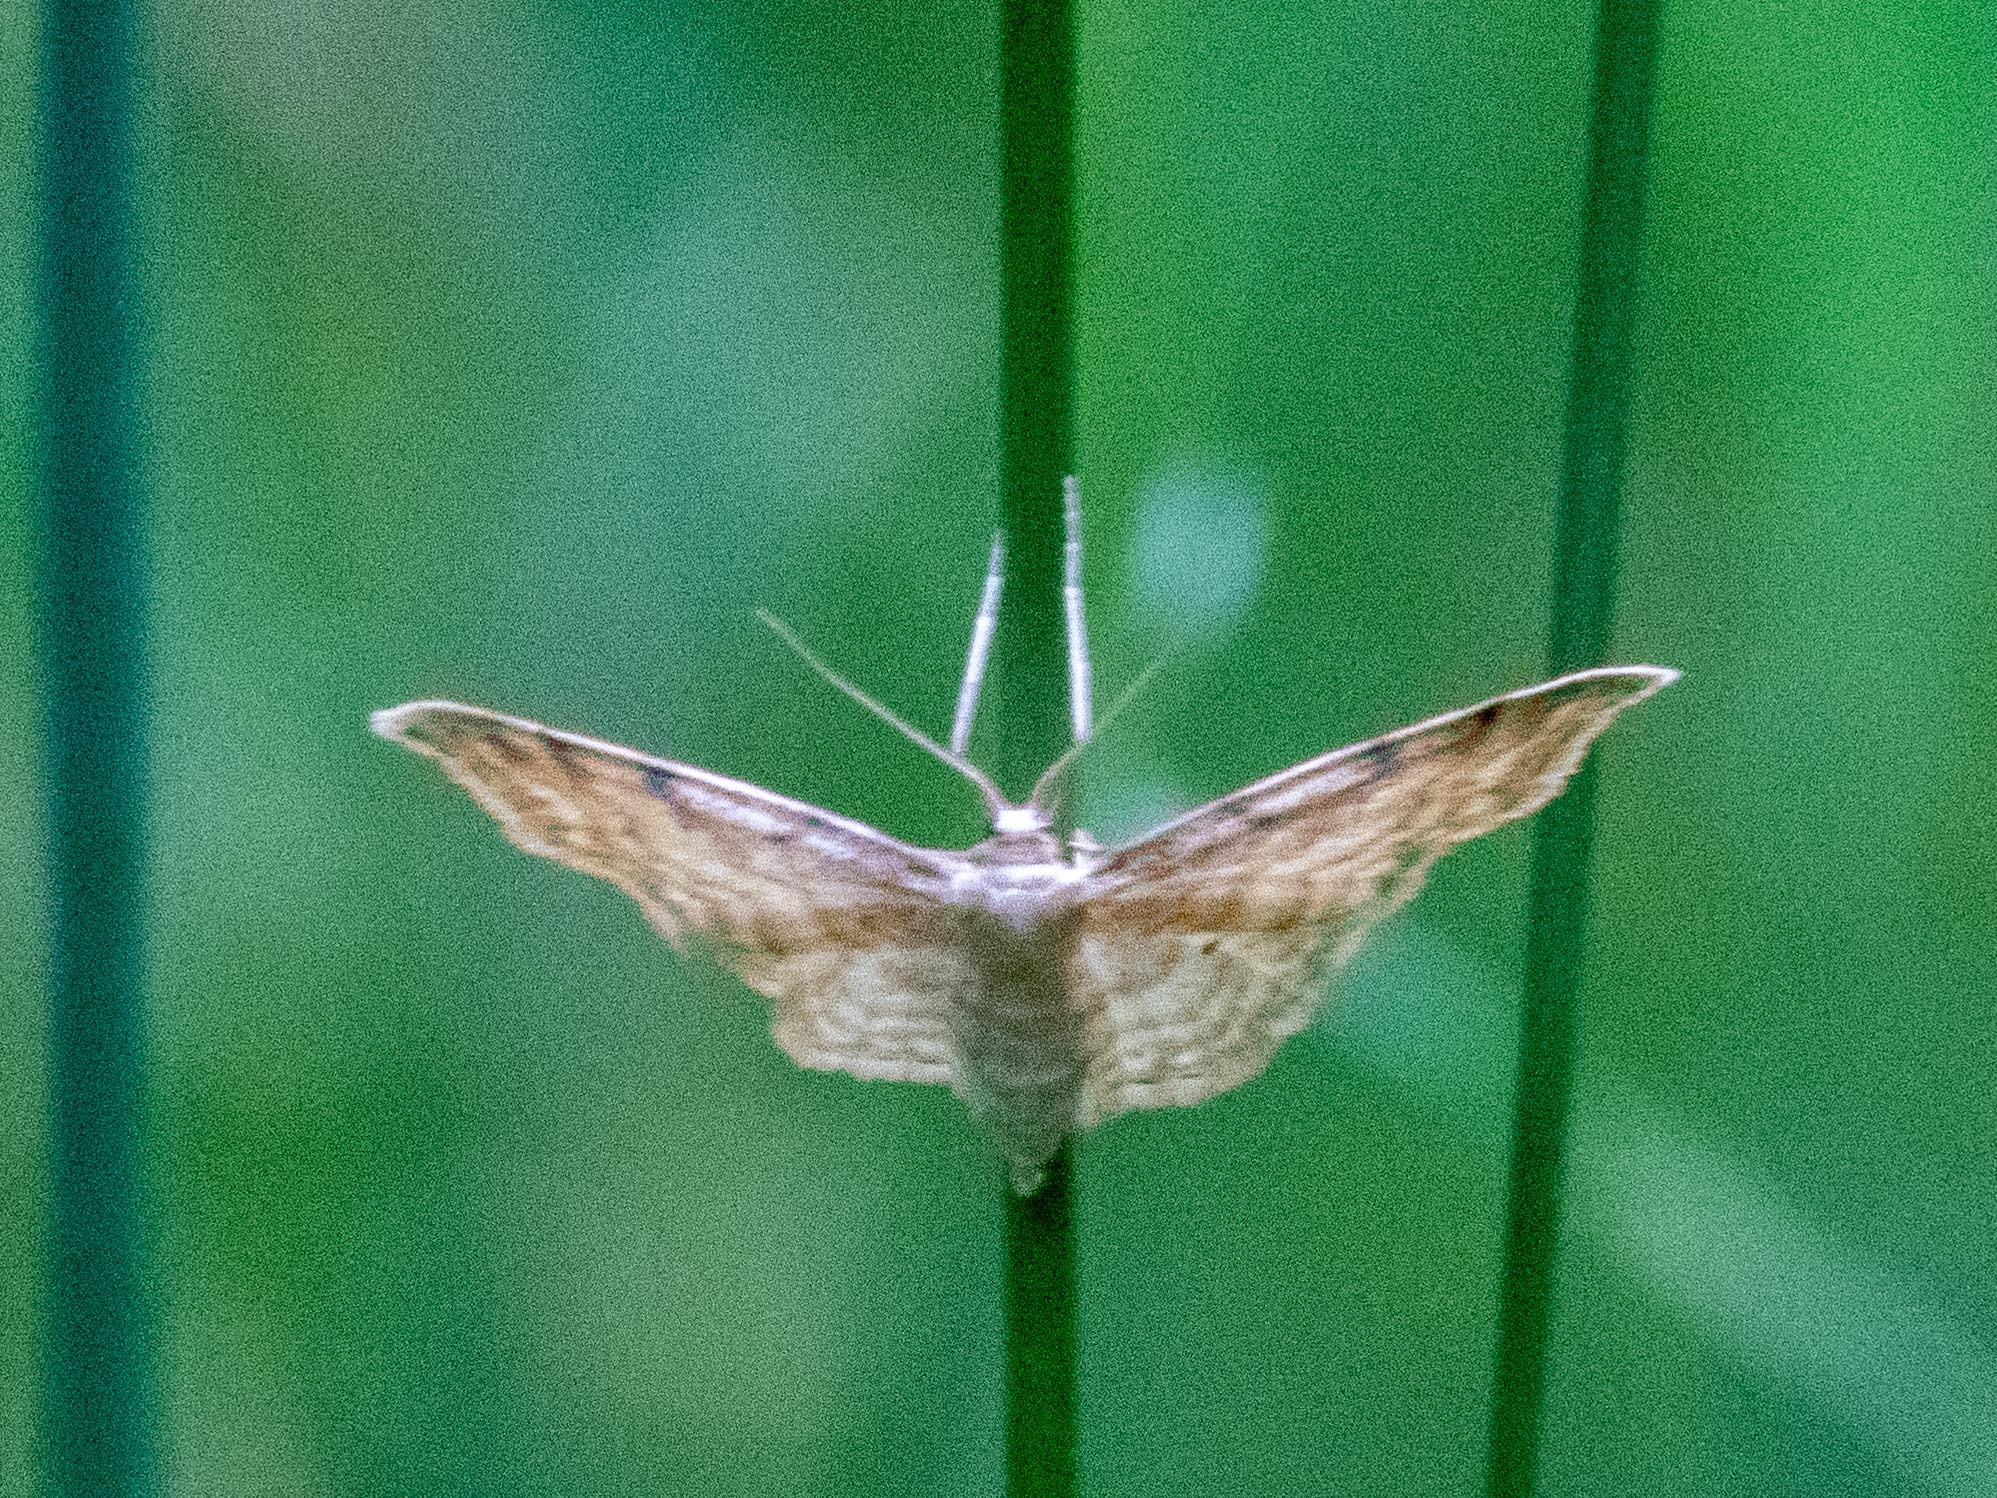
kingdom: Animalia
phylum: Arthropoda
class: Insecta
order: Lepidoptera
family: Geometridae
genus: Idaea
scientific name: Idaea humiliata
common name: Isle of wight wave
